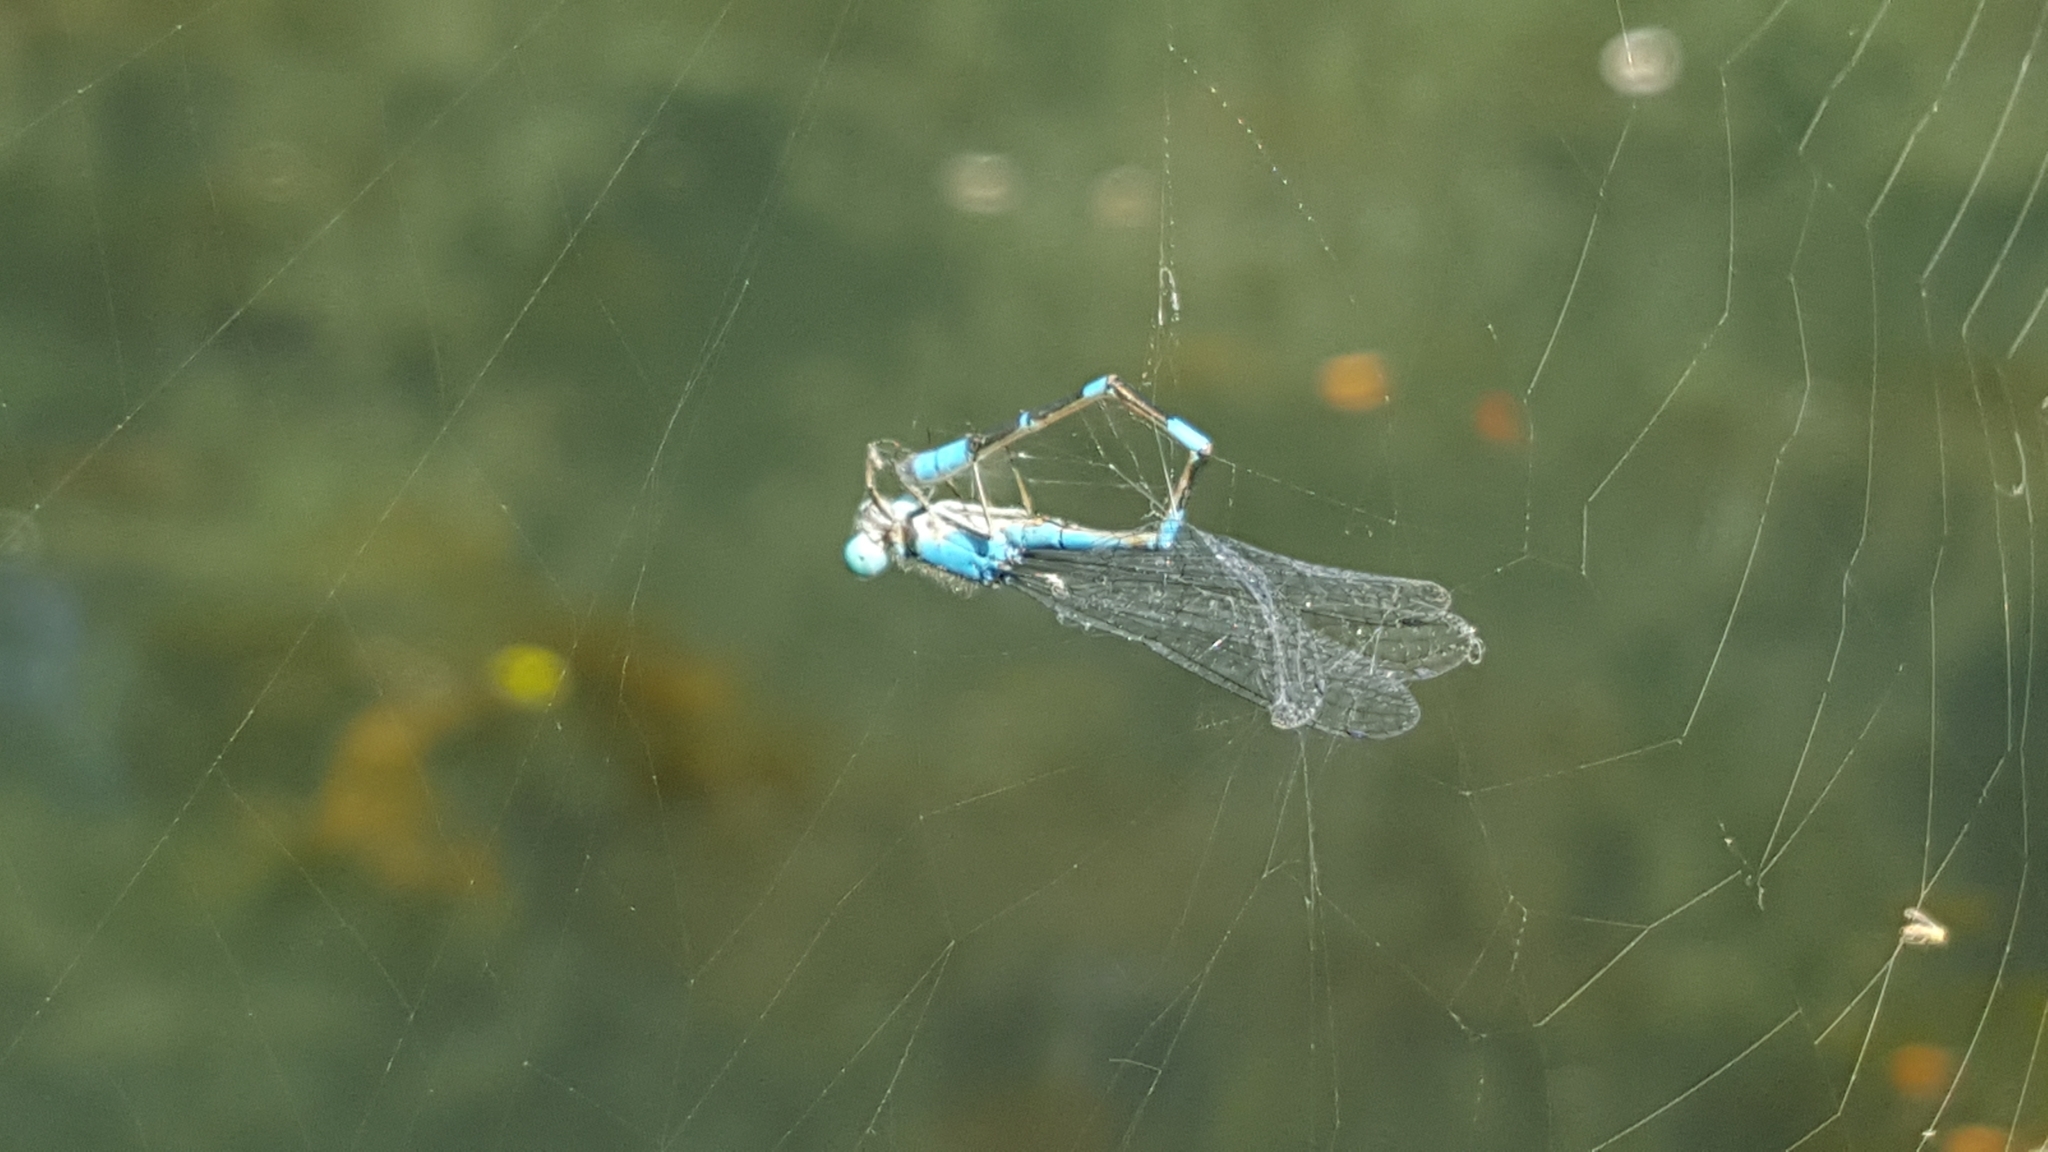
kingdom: Animalia
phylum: Arthropoda
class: Insecta
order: Odonata
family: Coenagrionidae
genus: Enallagma
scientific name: Enallagma carunculatum
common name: Tule bluet
